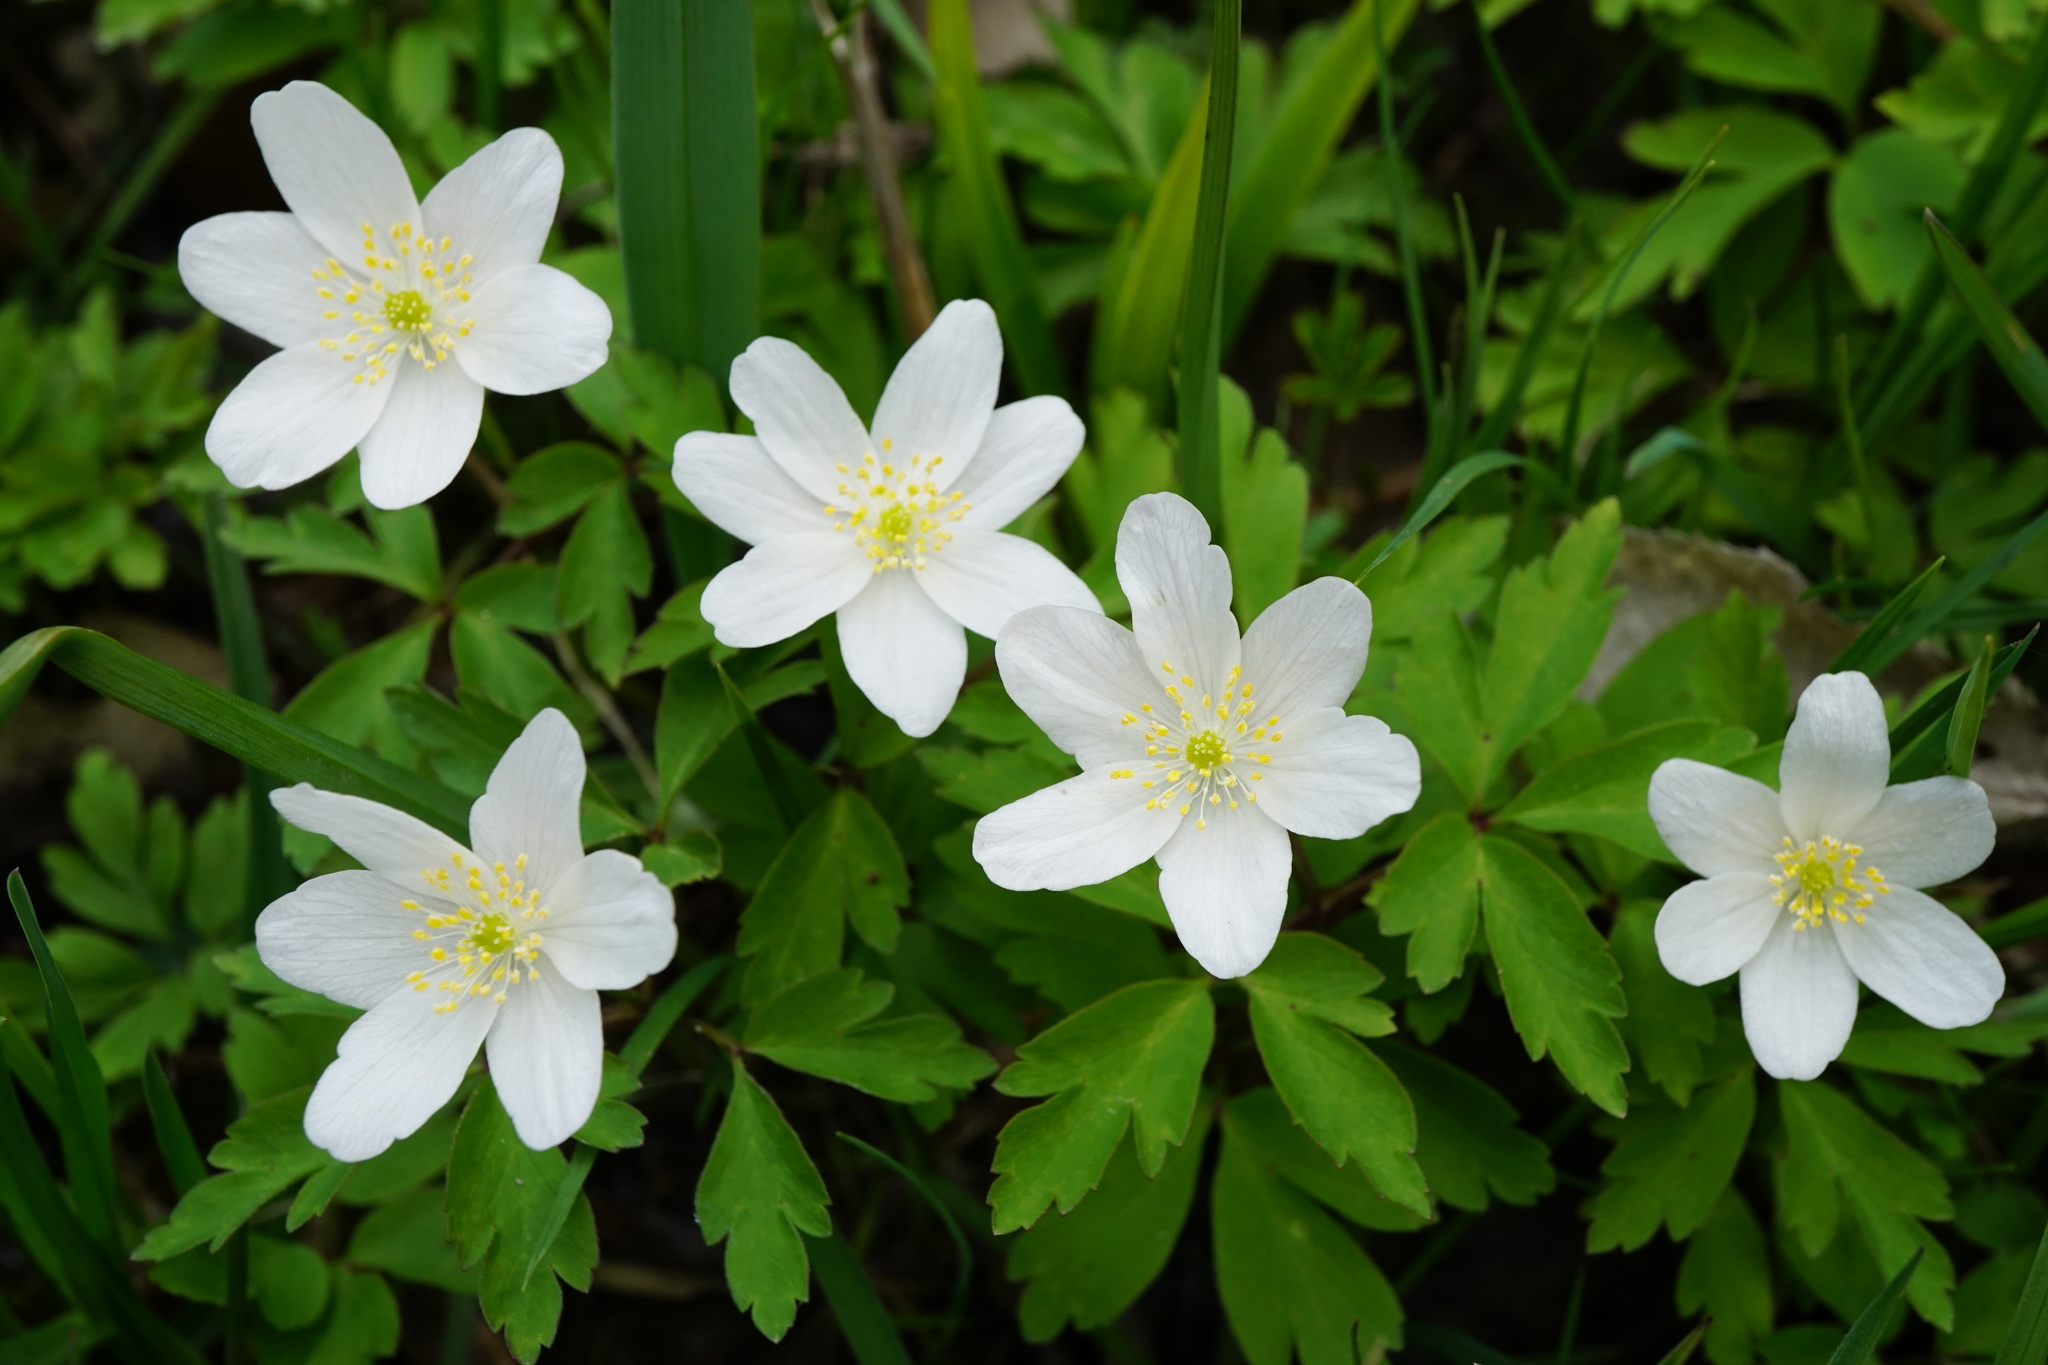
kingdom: Plantae
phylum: Tracheophyta
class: Magnoliopsida
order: Ranunculales
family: Ranunculaceae
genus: Anemone
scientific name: Anemone nemorosa
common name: Wood anemone
